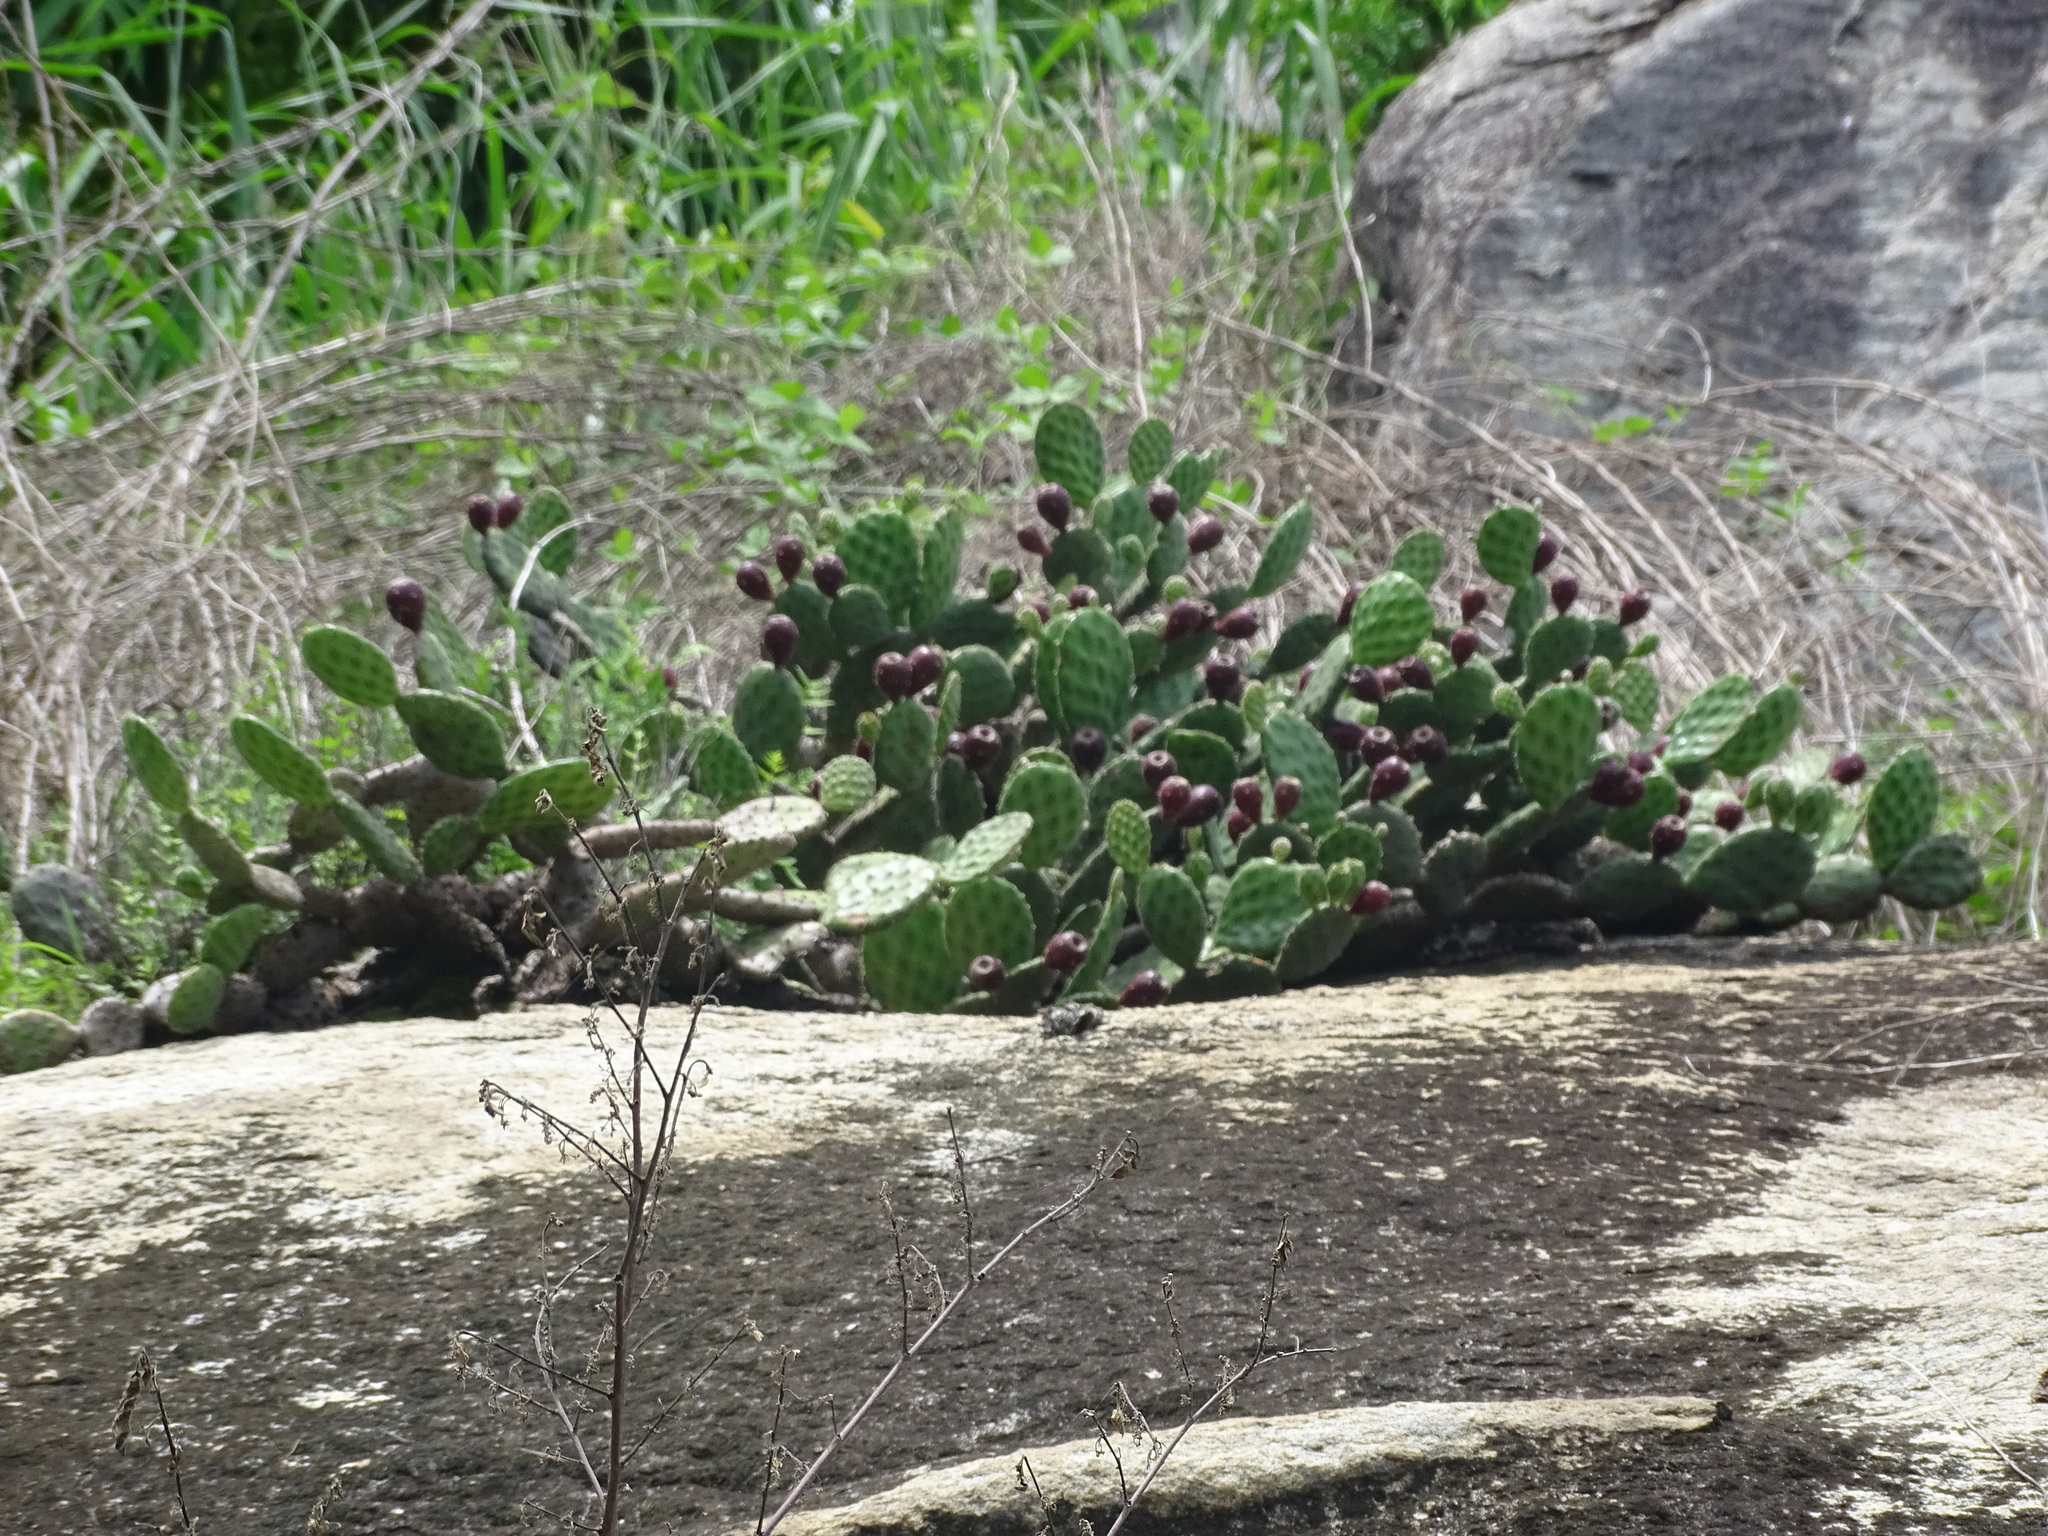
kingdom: Plantae
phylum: Tracheophyta
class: Magnoliopsida
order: Caryophyllales
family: Cactaceae
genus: Opuntia
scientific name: Opuntia decumbens
